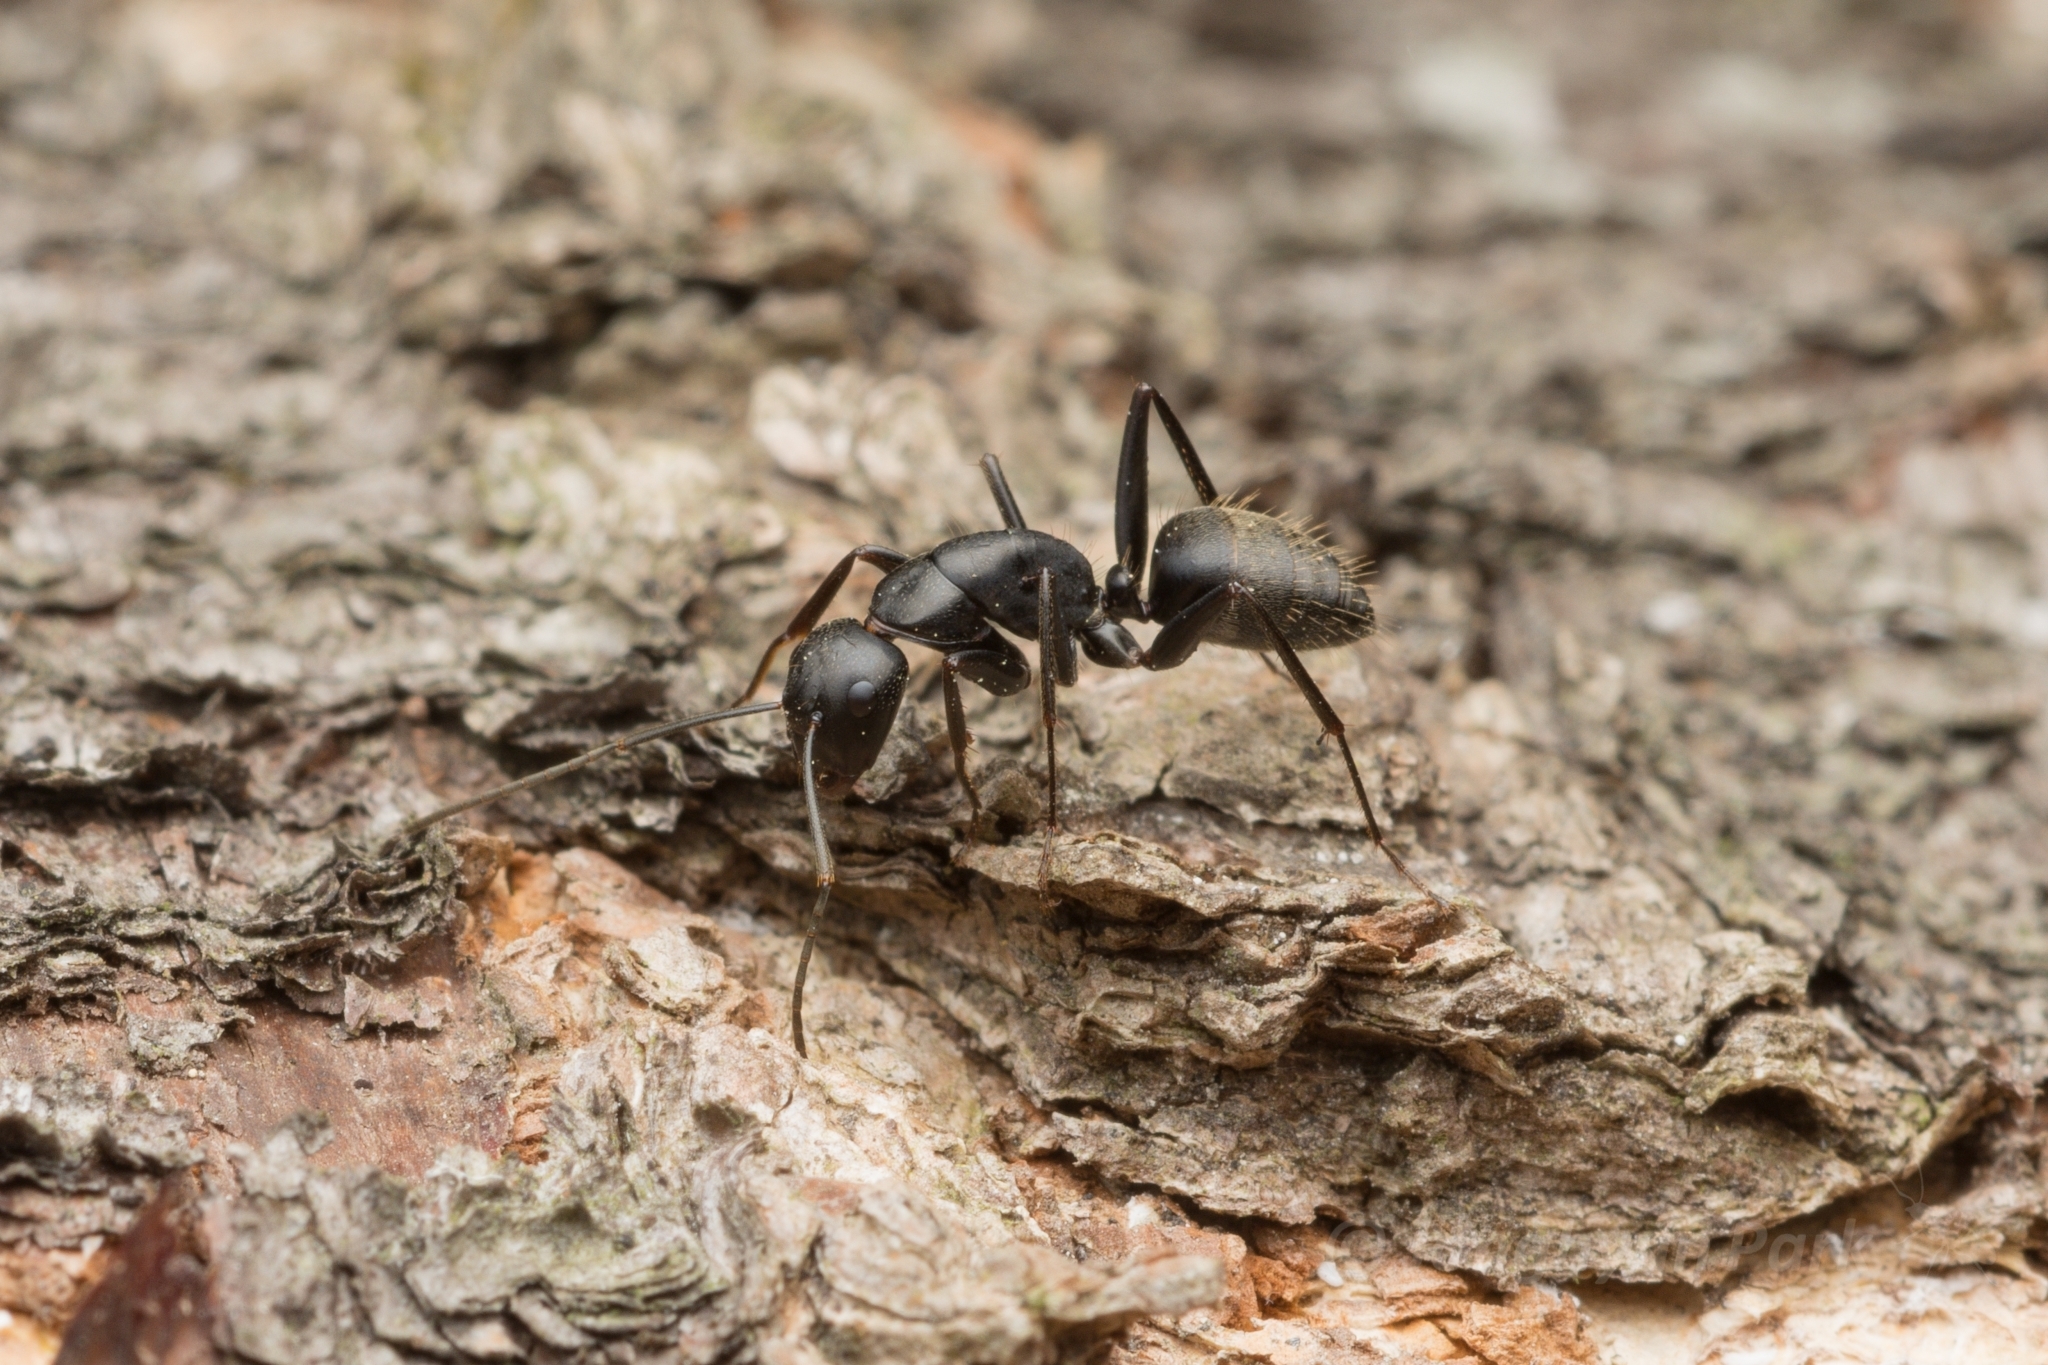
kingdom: Animalia
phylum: Arthropoda
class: Insecta
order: Hymenoptera
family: Formicidae
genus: Camponotus
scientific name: Camponotus japonicus
